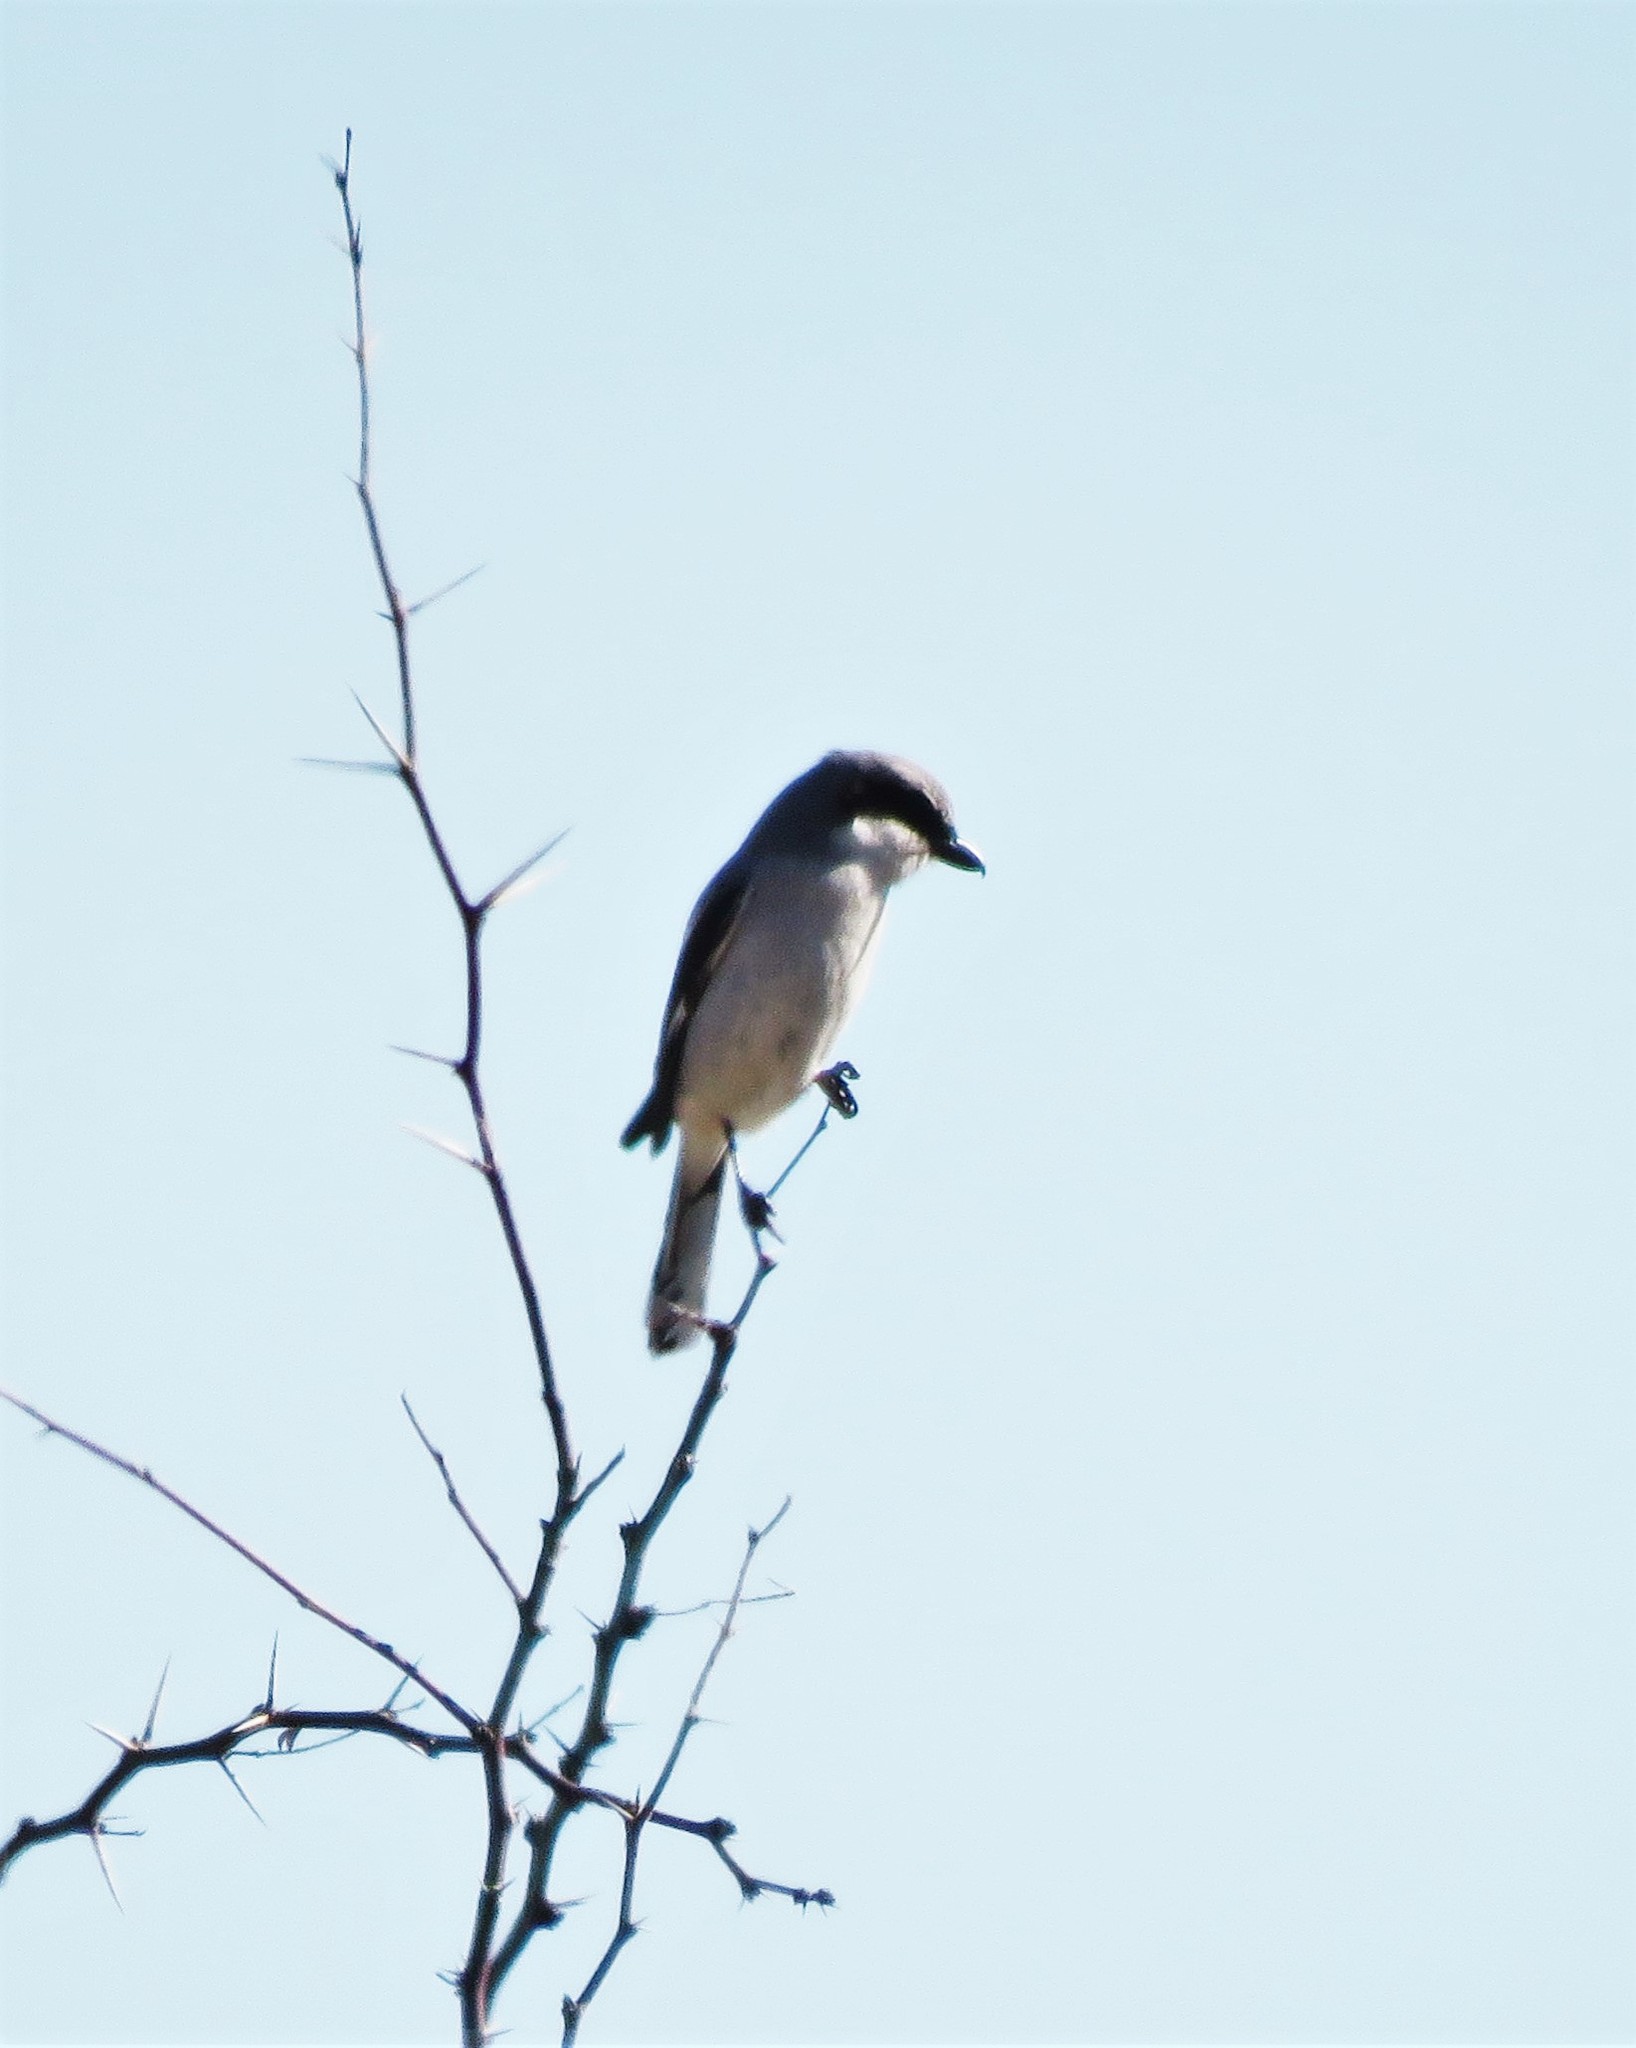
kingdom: Animalia
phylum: Chordata
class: Aves
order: Passeriformes
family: Laniidae
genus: Lanius
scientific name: Lanius ludovicianus
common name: Loggerhead shrike
